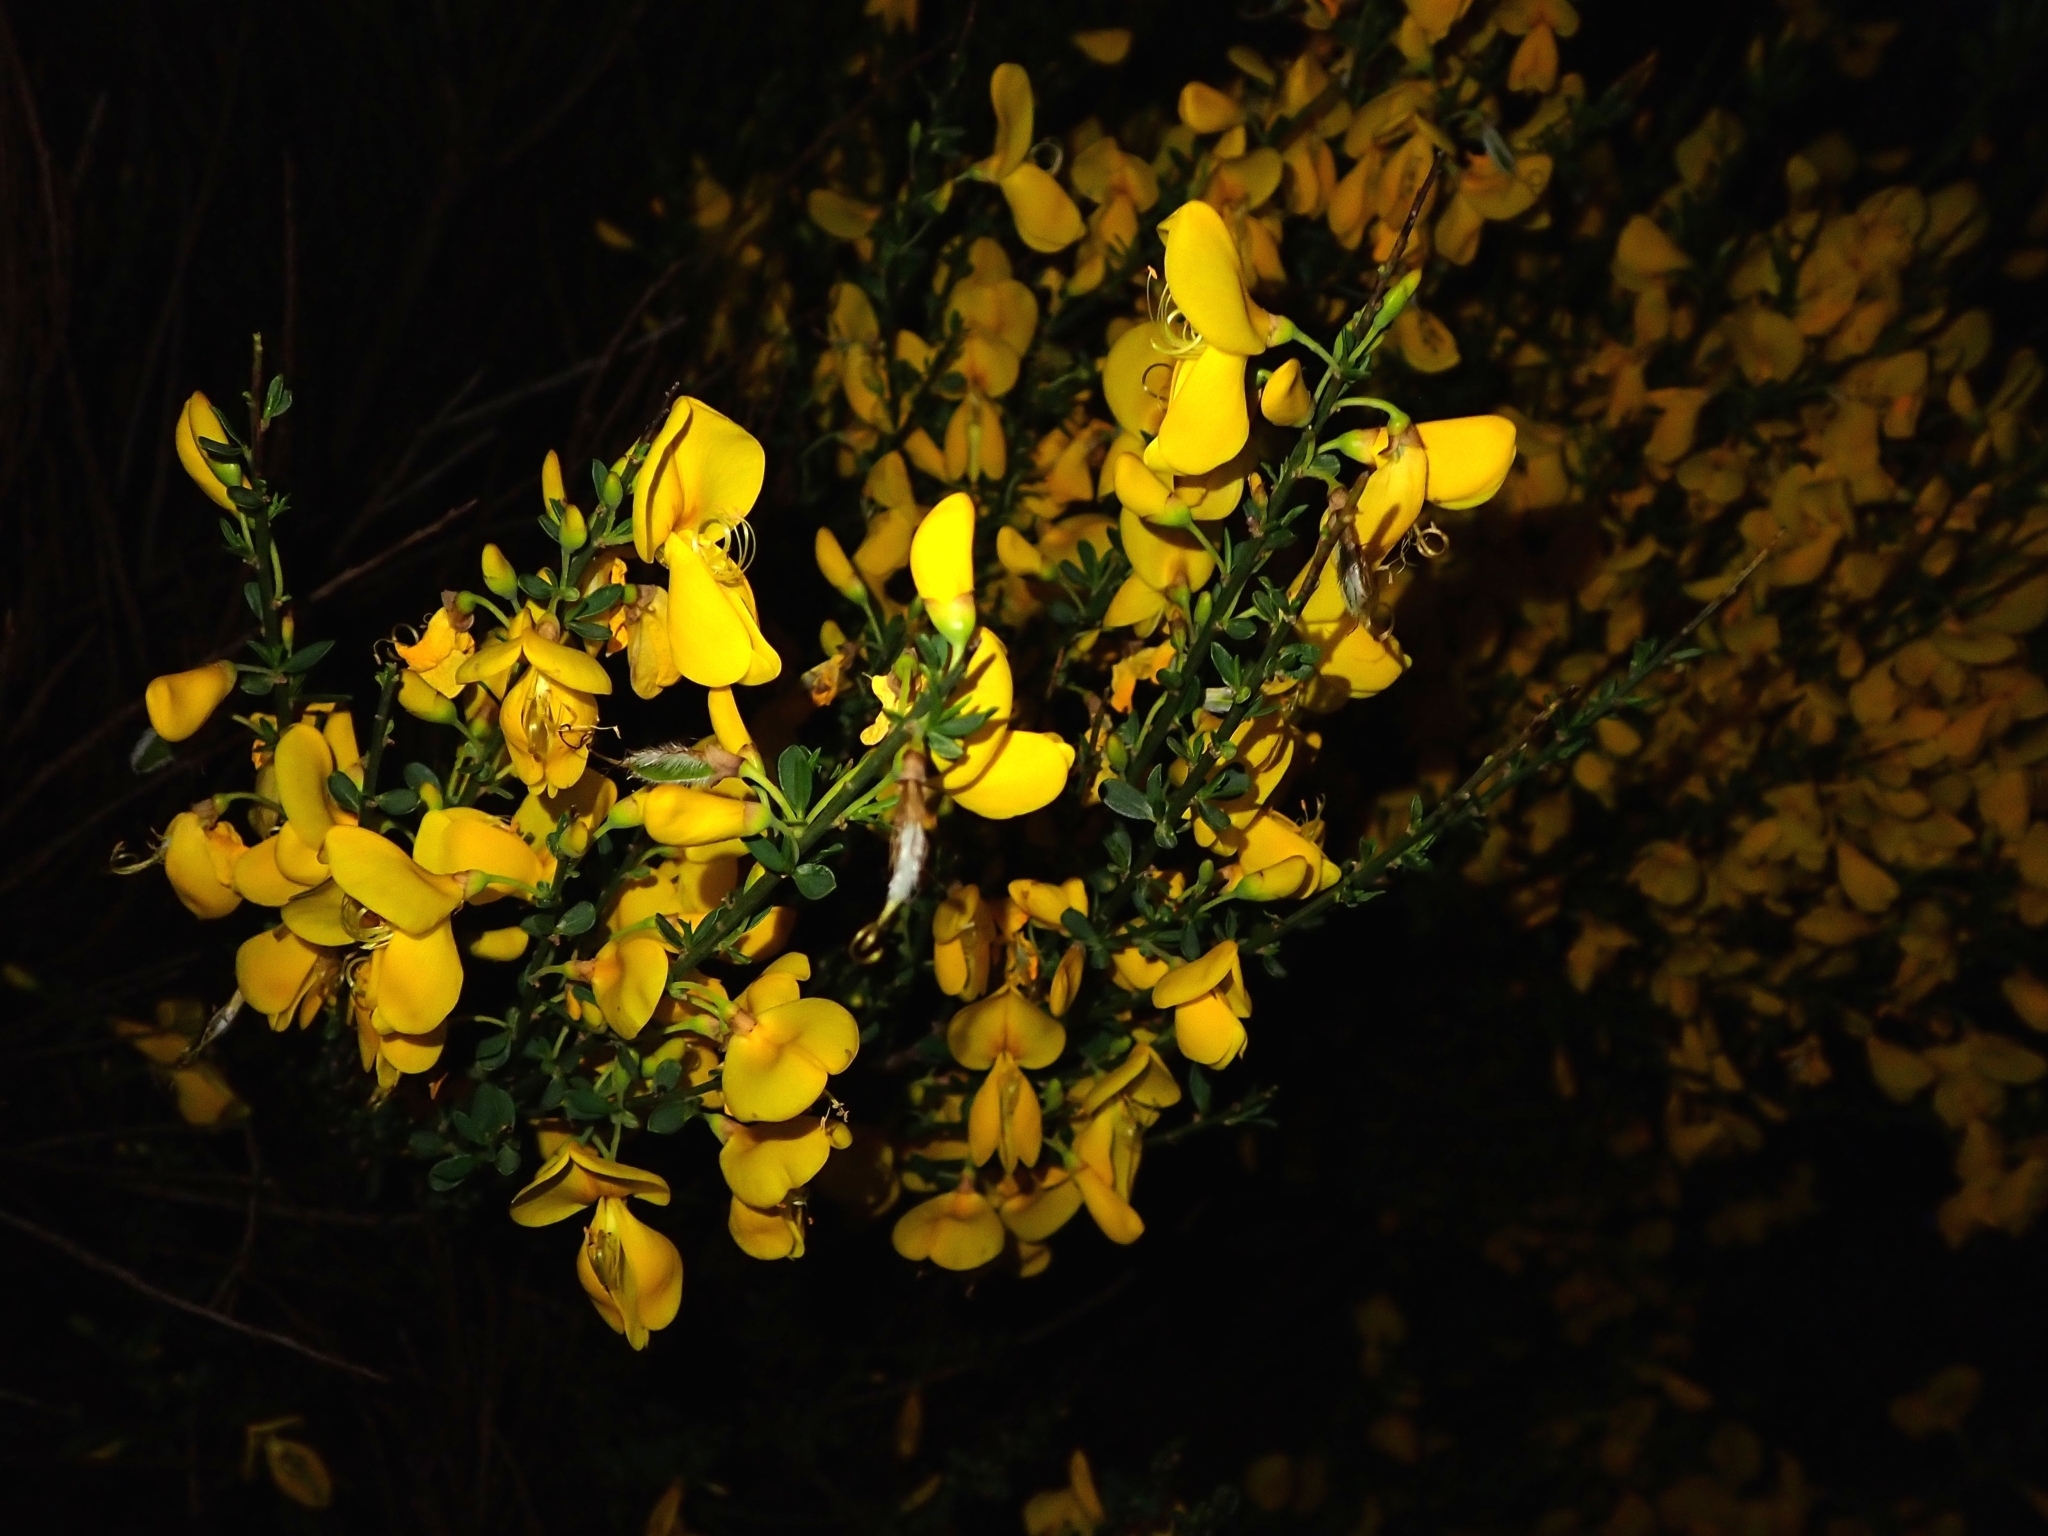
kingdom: Plantae
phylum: Tracheophyta
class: Magnoliopsida
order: Fabales
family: Fabaceae
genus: Cytisus
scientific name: Cytisus scoparius
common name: Scotch broom
